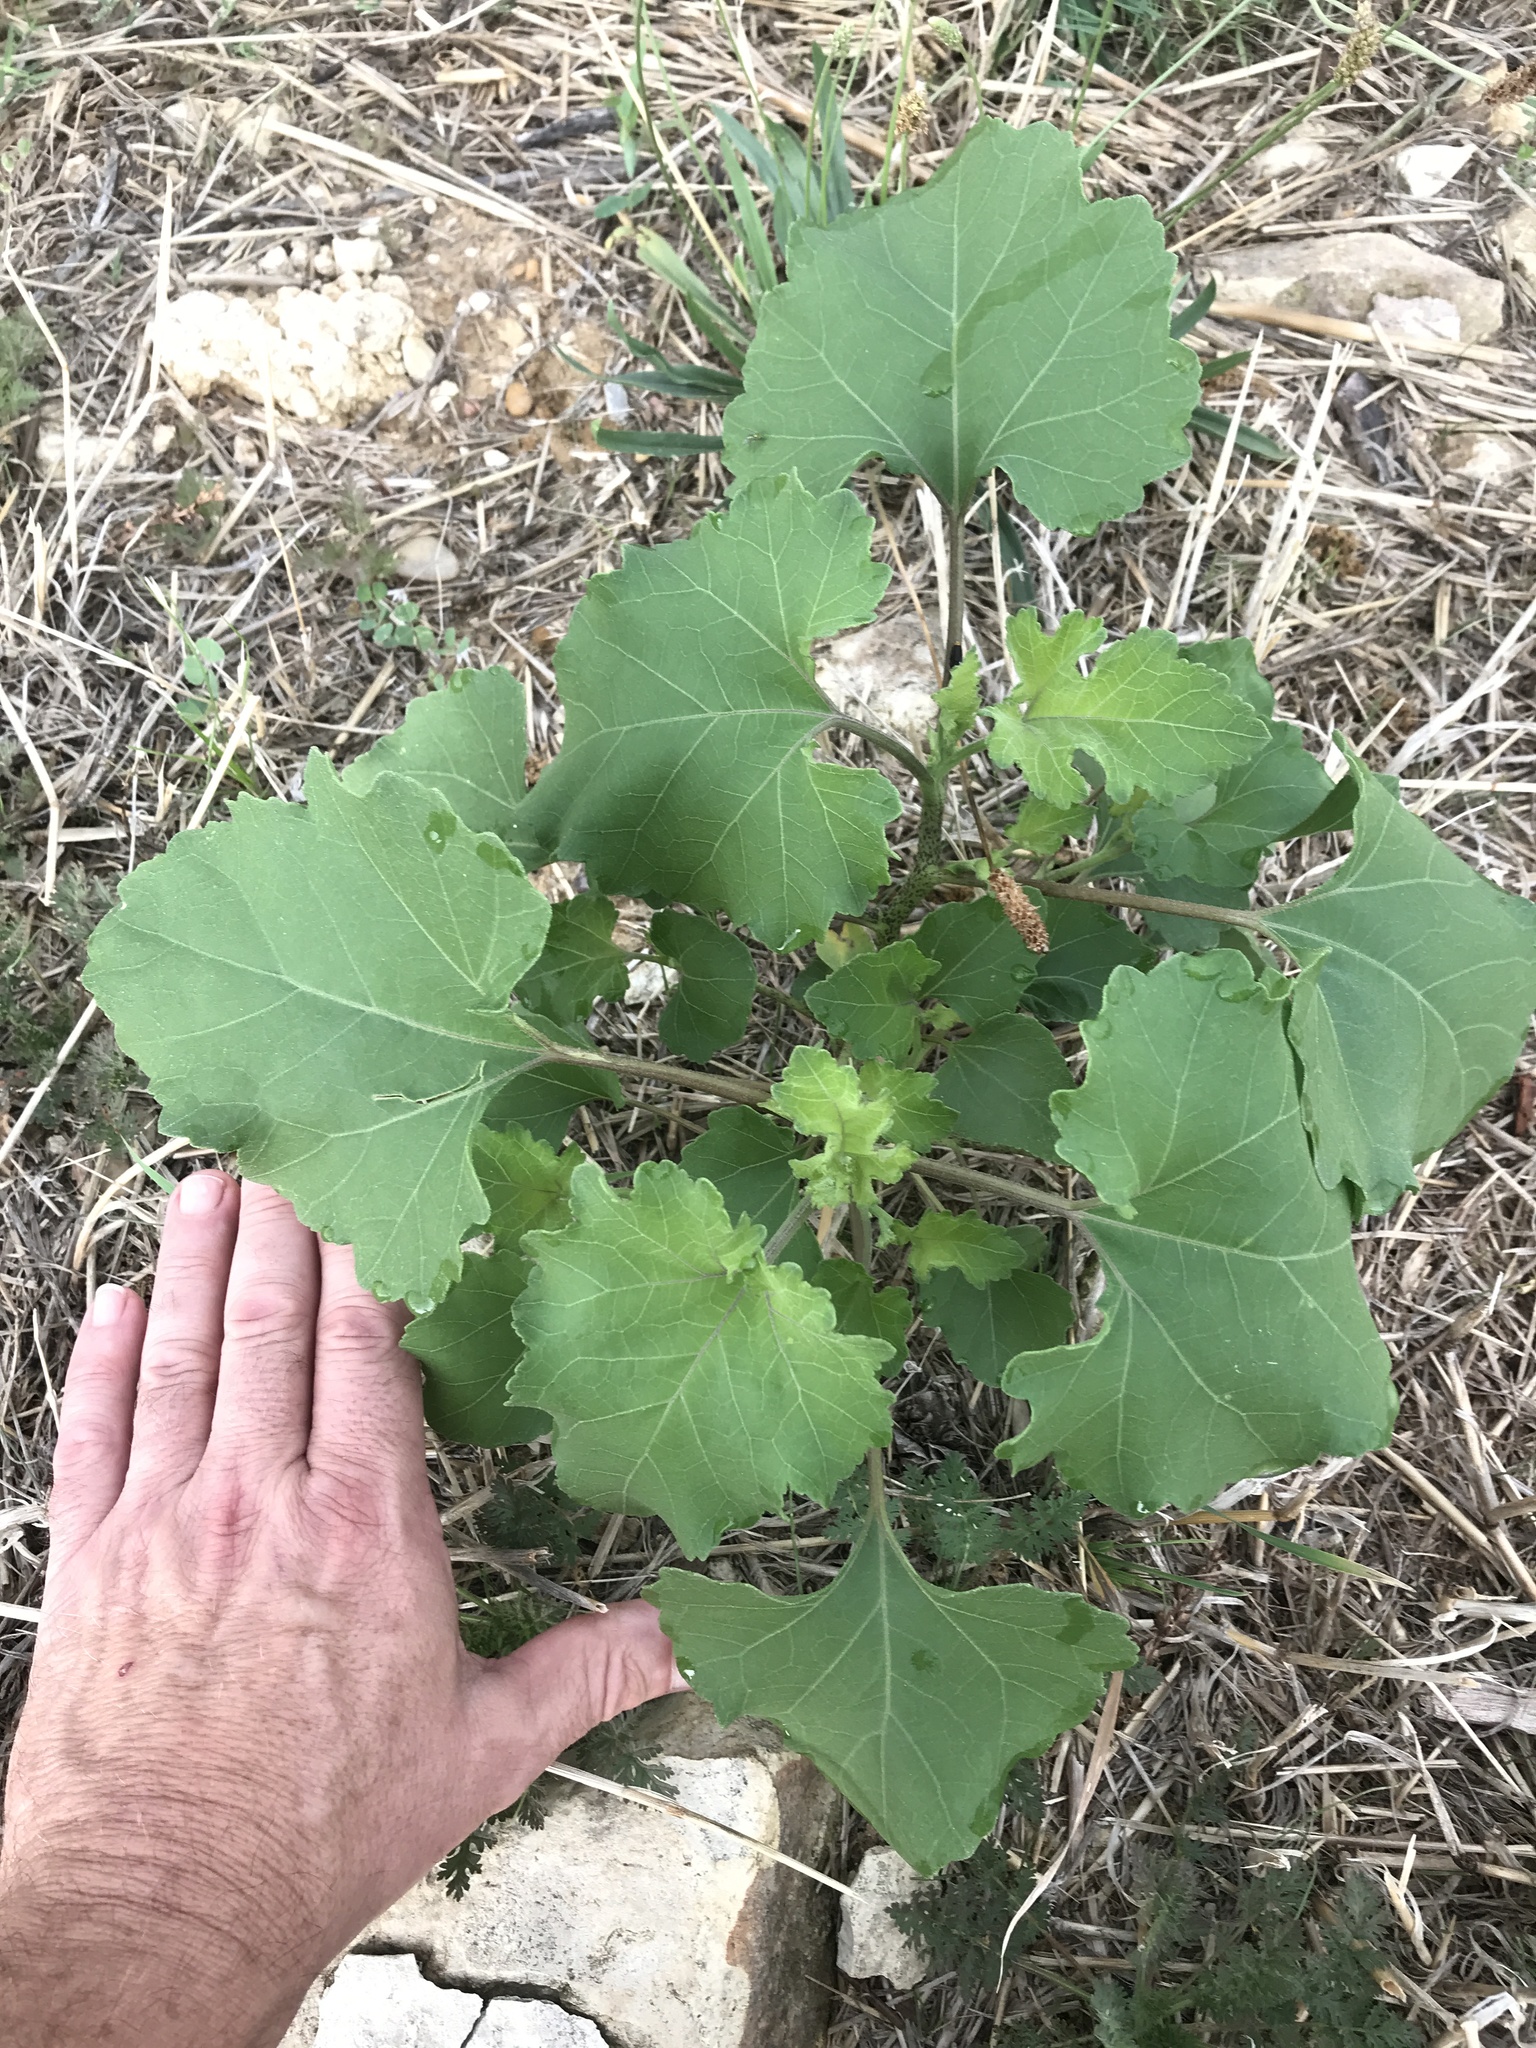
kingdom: Plantae
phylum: Tracheophyta
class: Magnoliopsida
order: Asterales
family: Asteraceae
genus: Xanthium
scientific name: Xanthium strumarium
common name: Rough cocklebur
